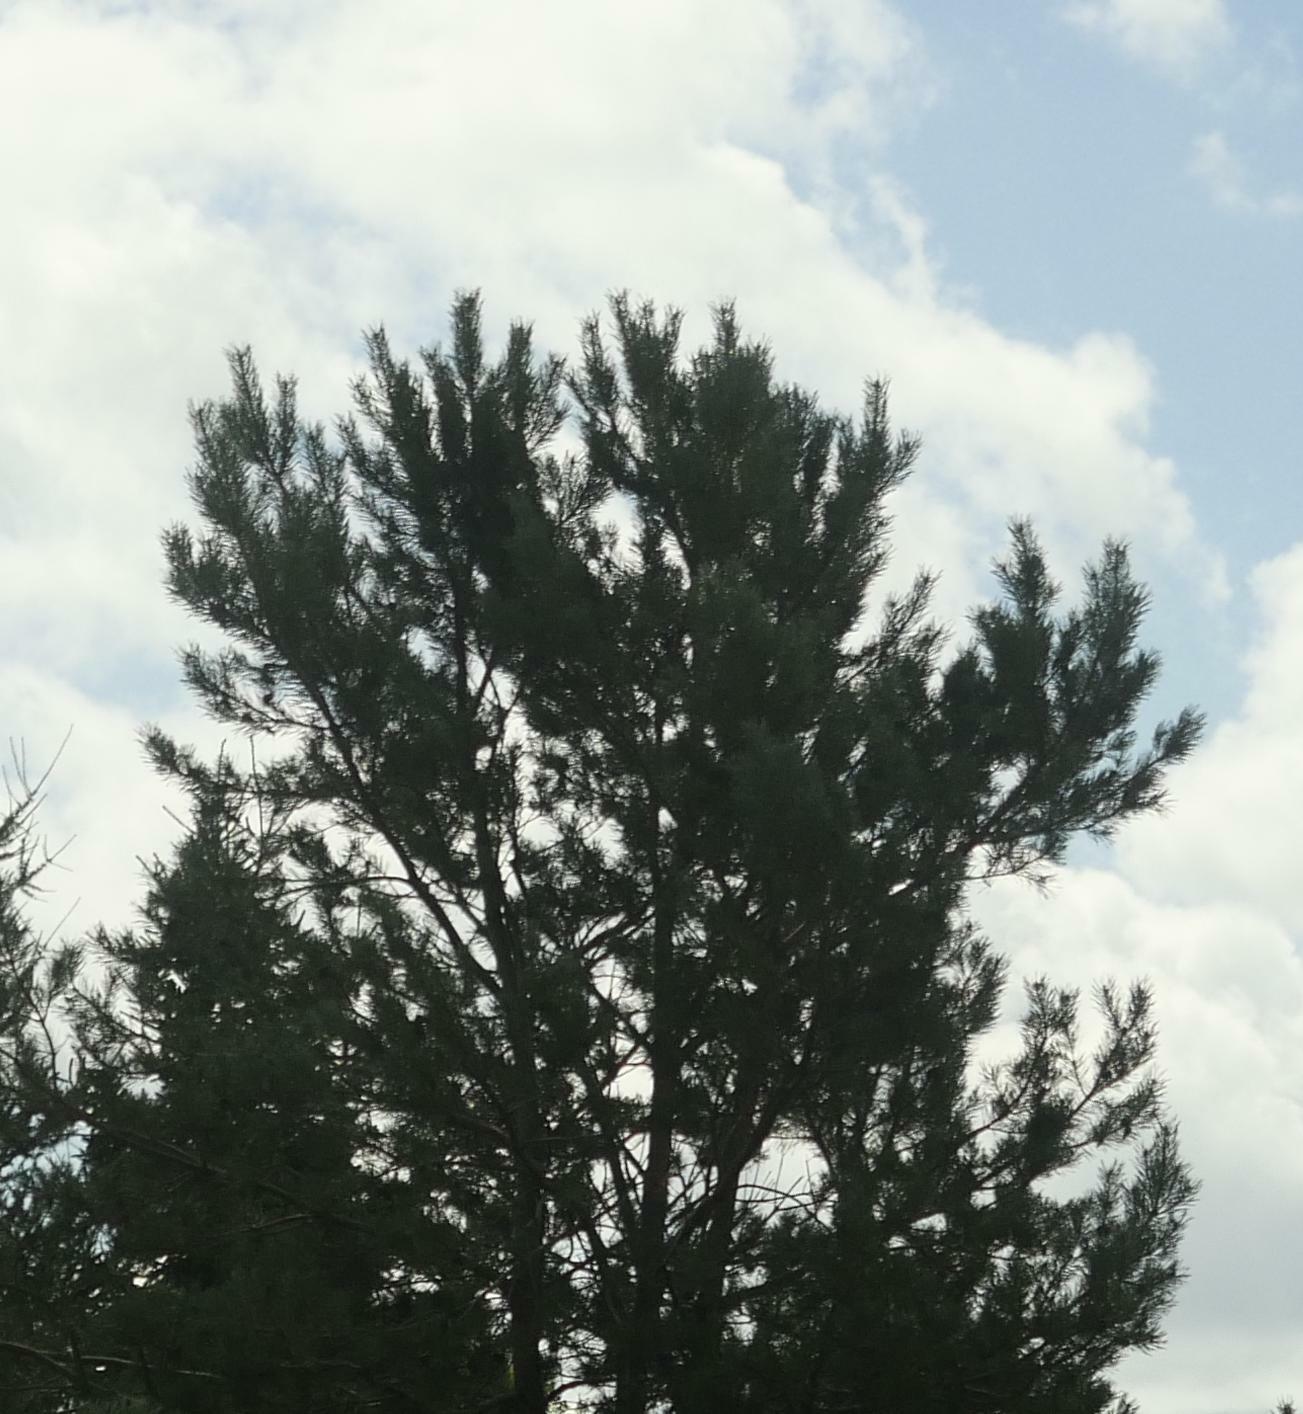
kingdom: Plantae
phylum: Tracheophyta
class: Pinopsida
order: Pinales
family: Pinaceae
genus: Pinus
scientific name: Pinus strobus
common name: Weymouth pine
